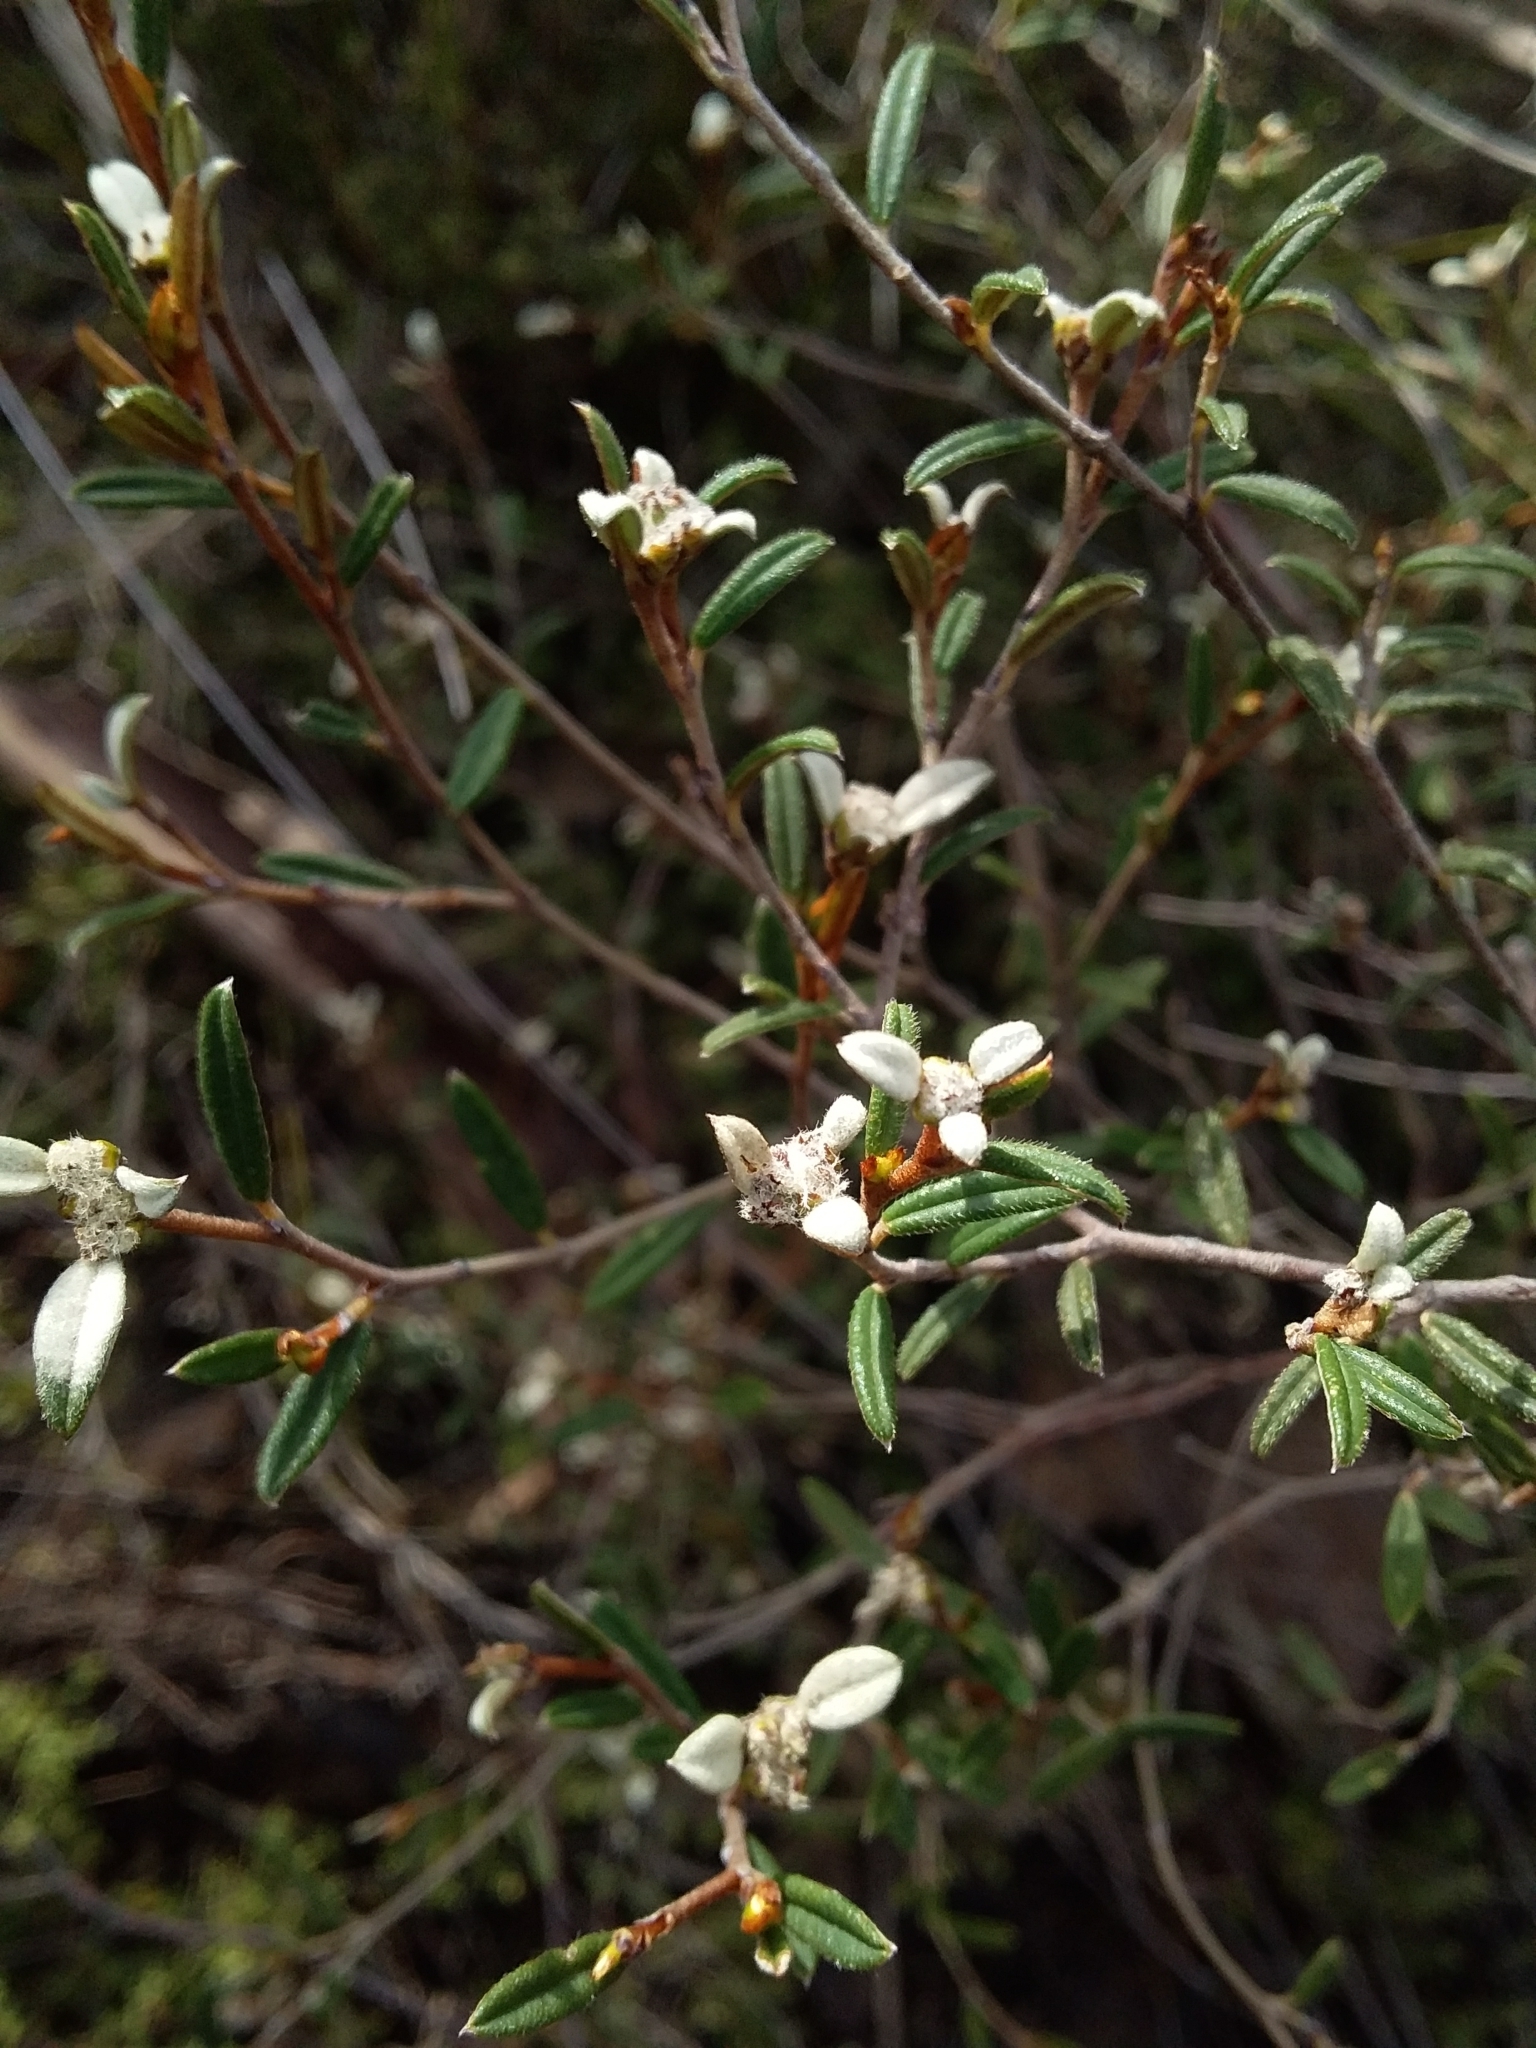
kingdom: Plantae
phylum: Tracheophyta
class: Magnoliopsida
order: Rosales
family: Rhamnaceae
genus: Spyridium
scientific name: Spyridium vexilliferum
